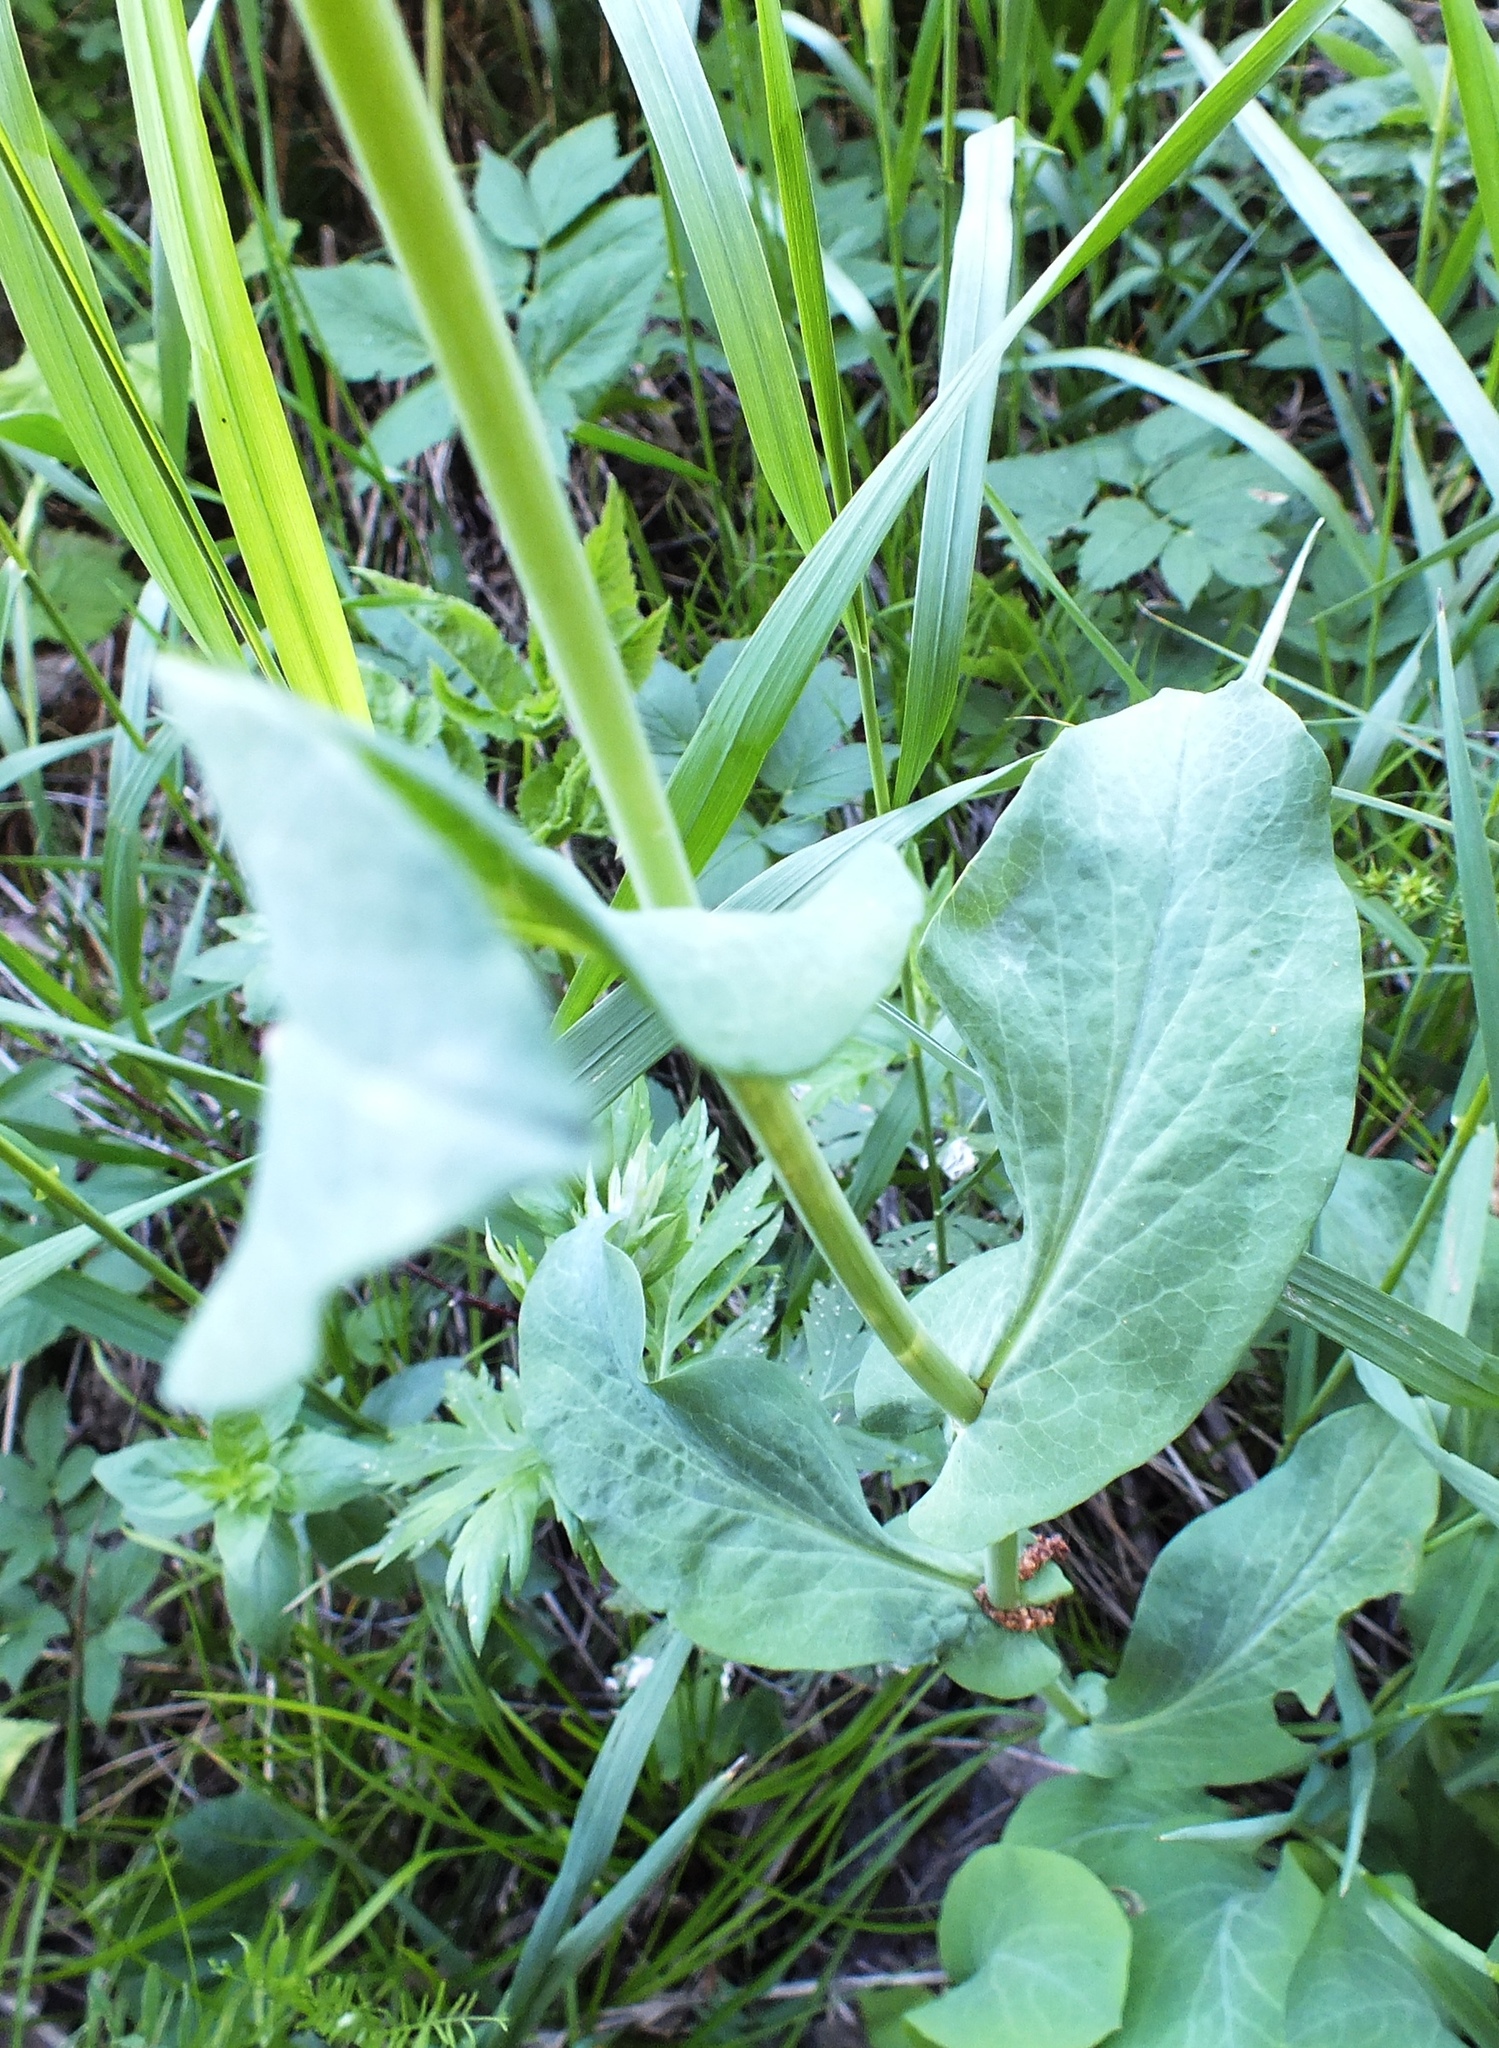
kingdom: Plantae
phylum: Tracheophyta
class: Magnoliopsida
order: Apiales
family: Apiaceae
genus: Bupleurum
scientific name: Bupleurum aureum
